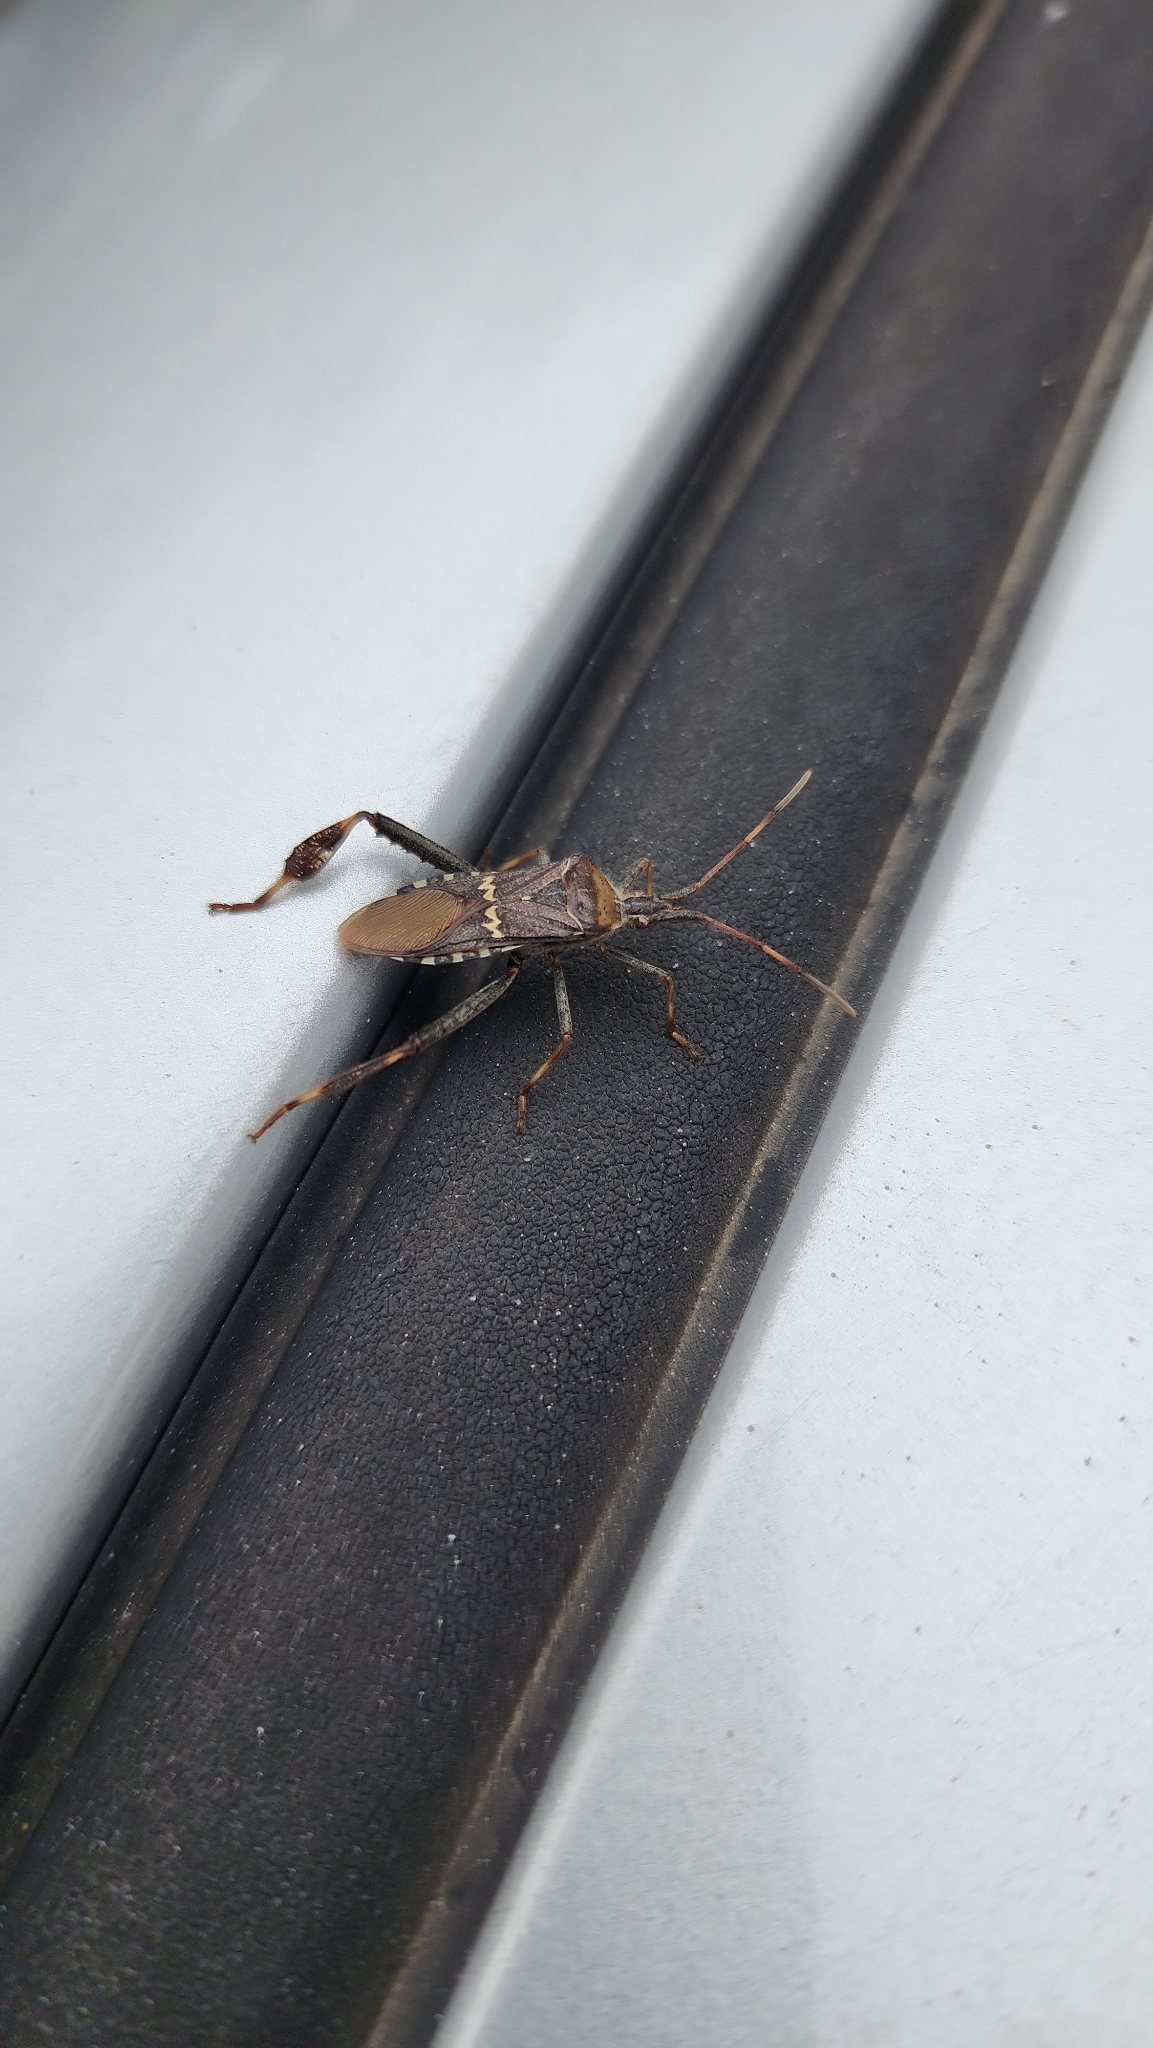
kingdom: Animalia
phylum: Arthropoda
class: Insecta
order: Hemiptera
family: Coreidae
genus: Leptoglossus
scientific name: Leptoglossus clypealis
